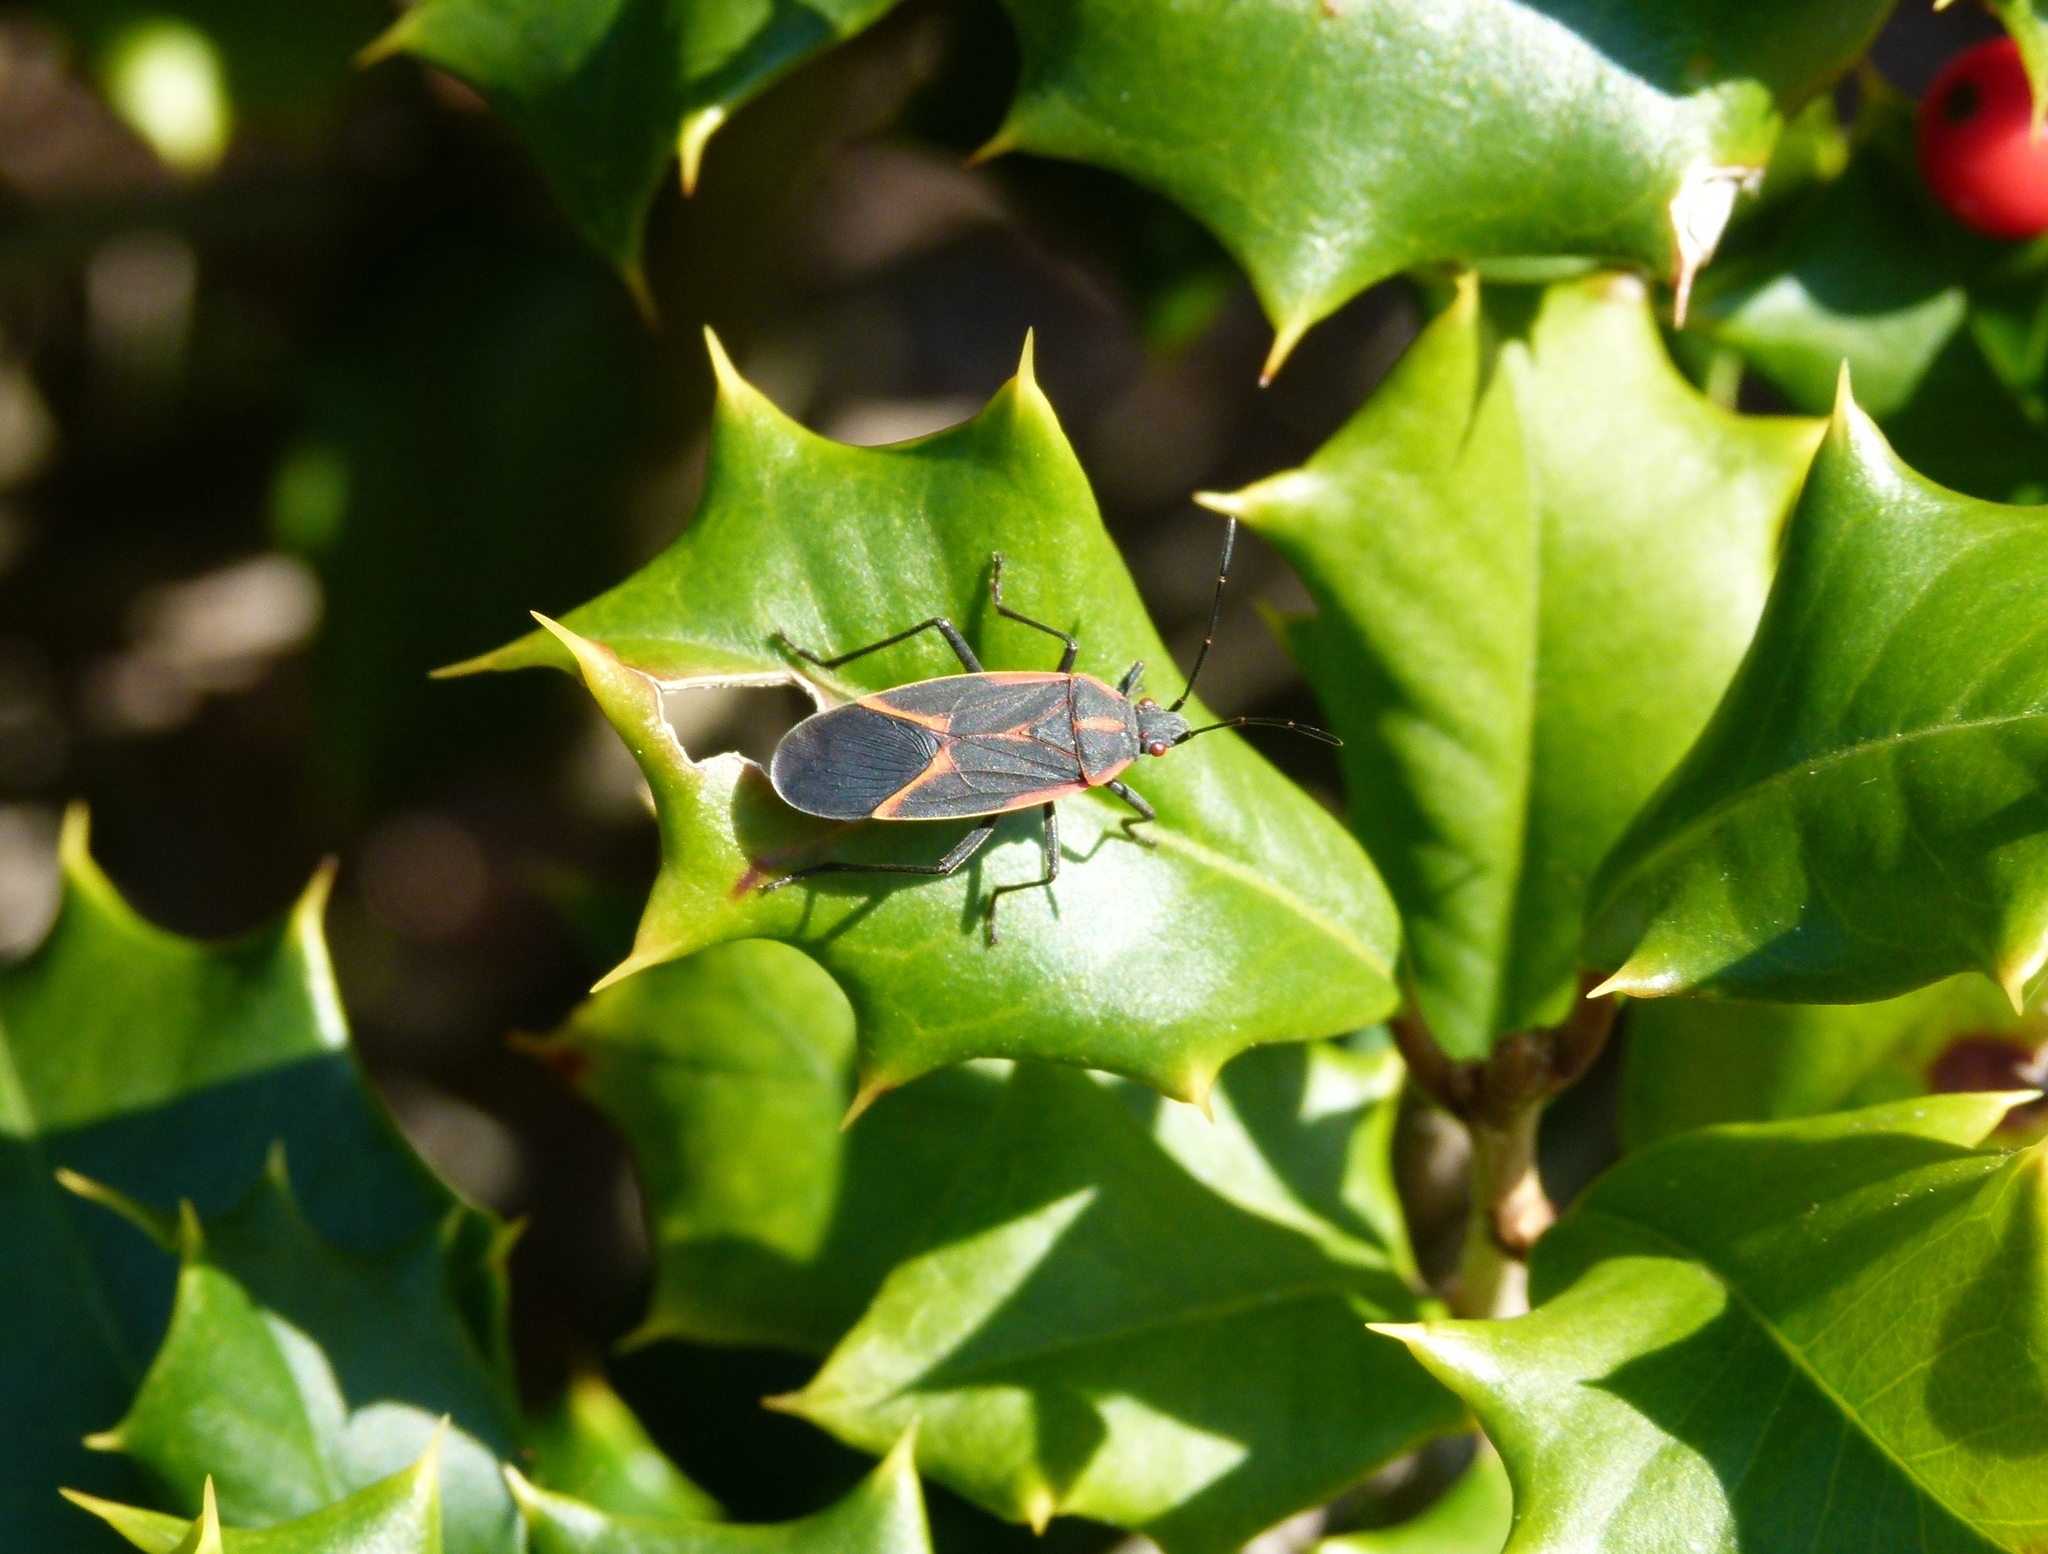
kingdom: Animalia
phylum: Arthropoda
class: Insecta
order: Hemiptera
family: Rhopalidae
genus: Boisea
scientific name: Boisea trivittata
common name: Boxelder bug
